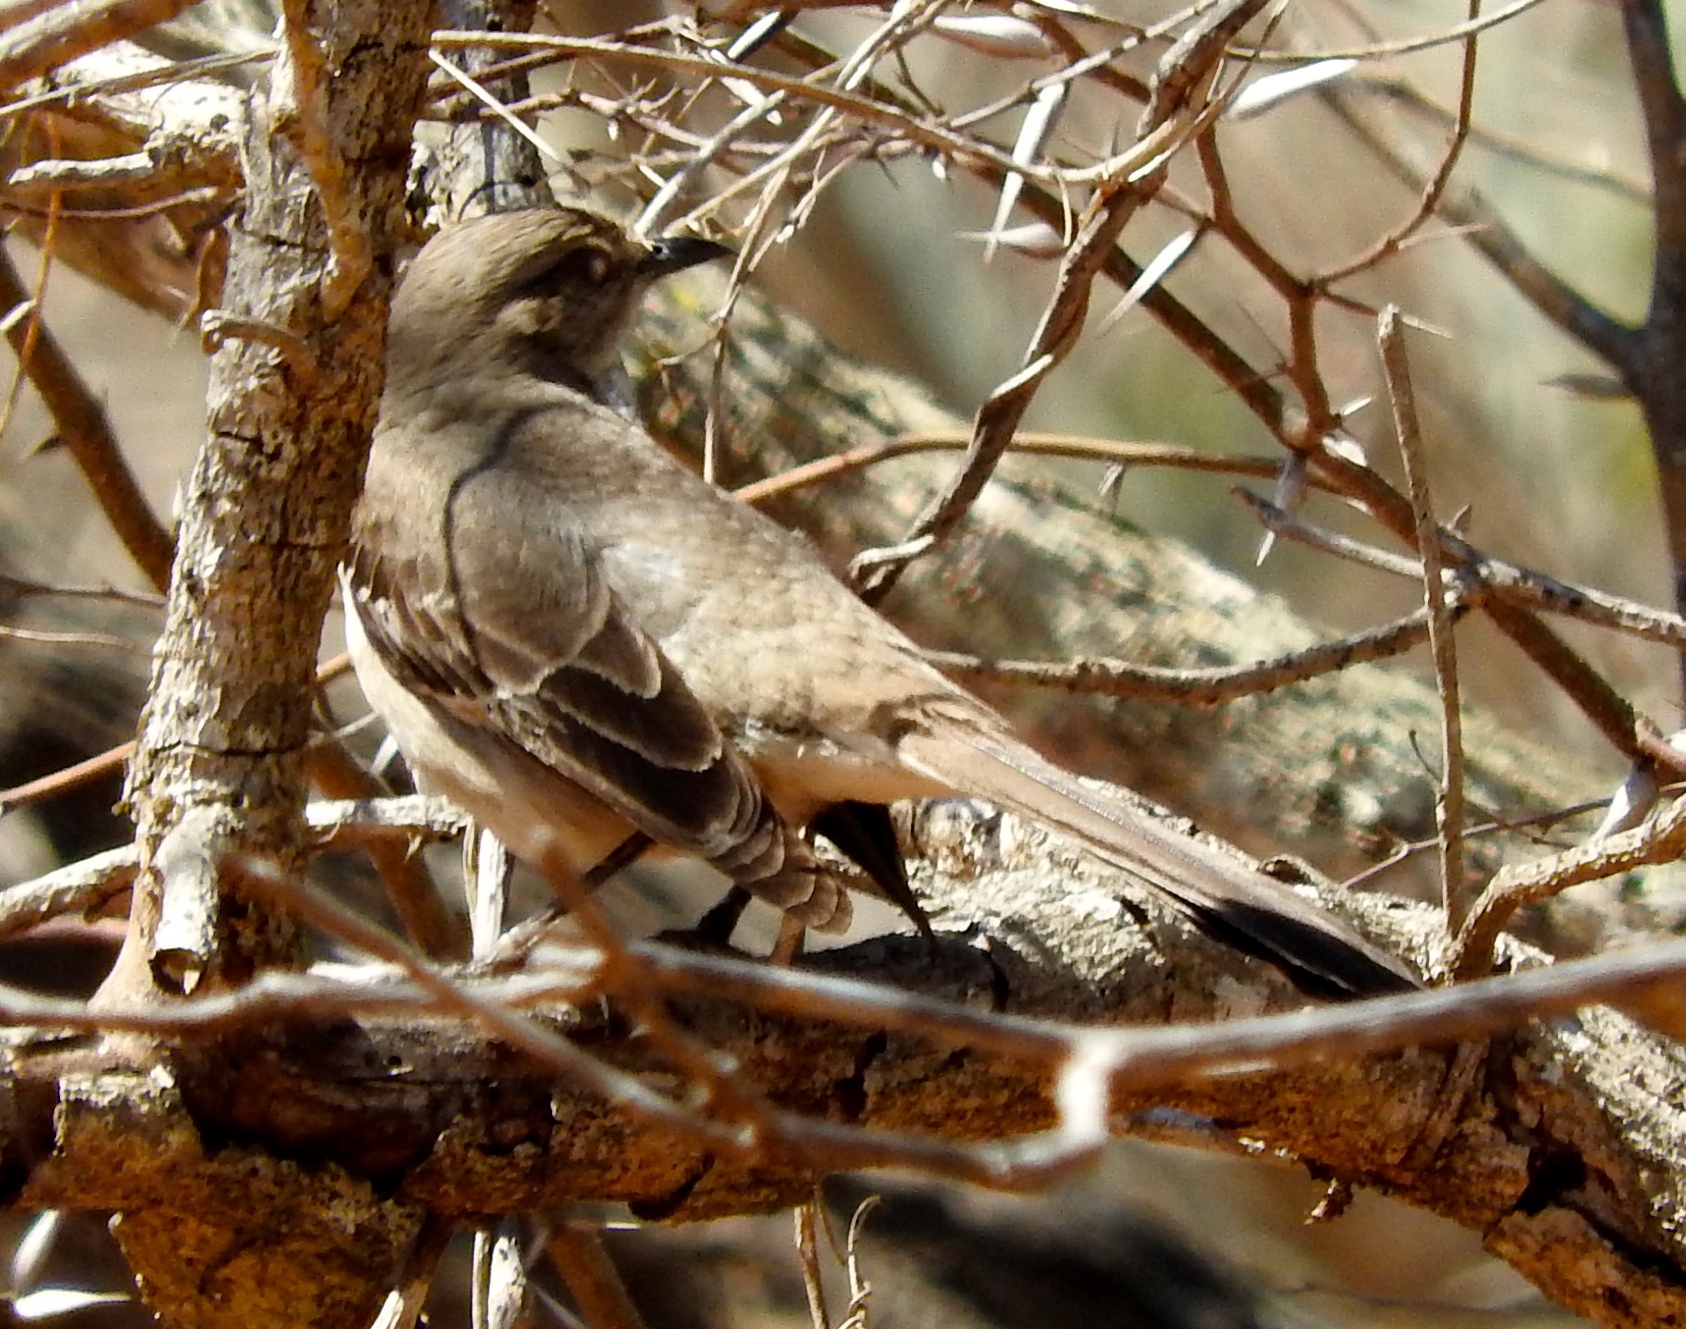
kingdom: Animalia
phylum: Chordata
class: Aves
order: Passeriformes
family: Mimidae
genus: Mimus
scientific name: Mimus polyglottos
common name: Northern mockingbird
